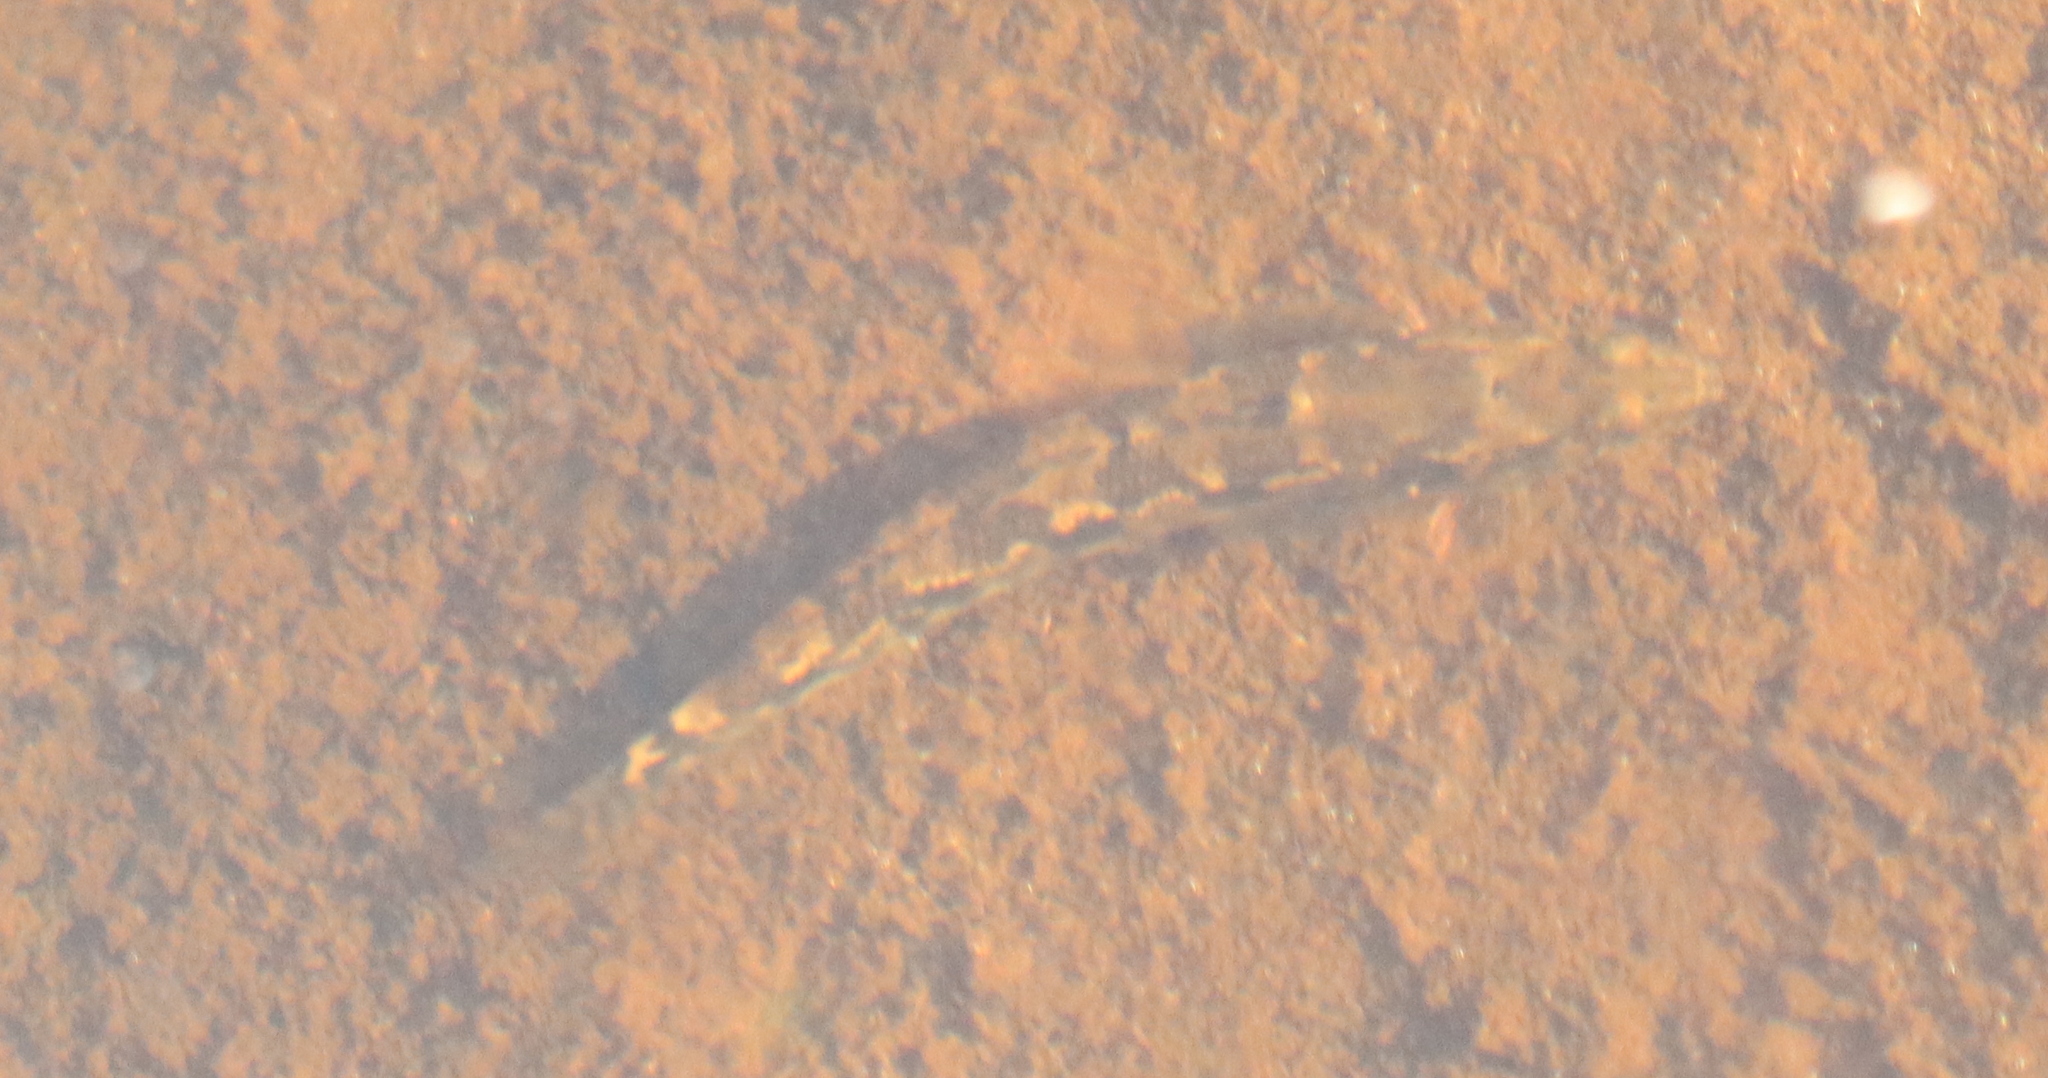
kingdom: Animalia
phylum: Chordata
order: Perciformes
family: Pseudaphritidae
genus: Pseudaphritis
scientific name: Pseudaphritis urvillii
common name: Tupong
